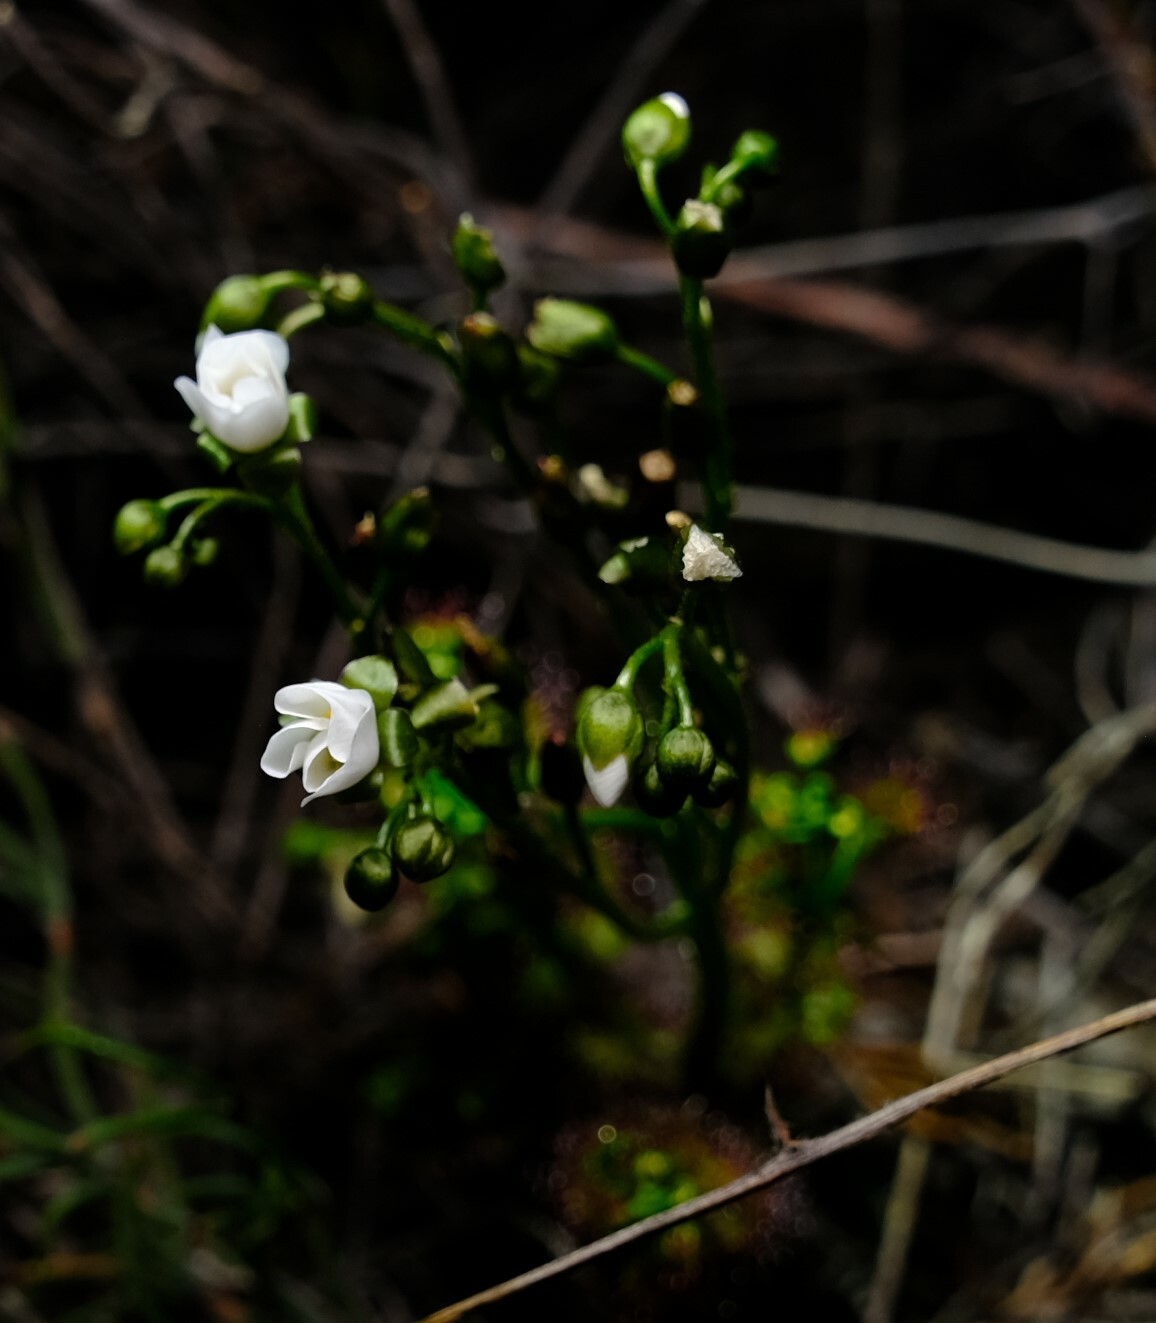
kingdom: Plantae
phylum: Tracheophyta
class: Magnoliopsida
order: Caryophyllales
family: Droseraceae
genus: Drosera
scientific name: Drosera stolonifera
